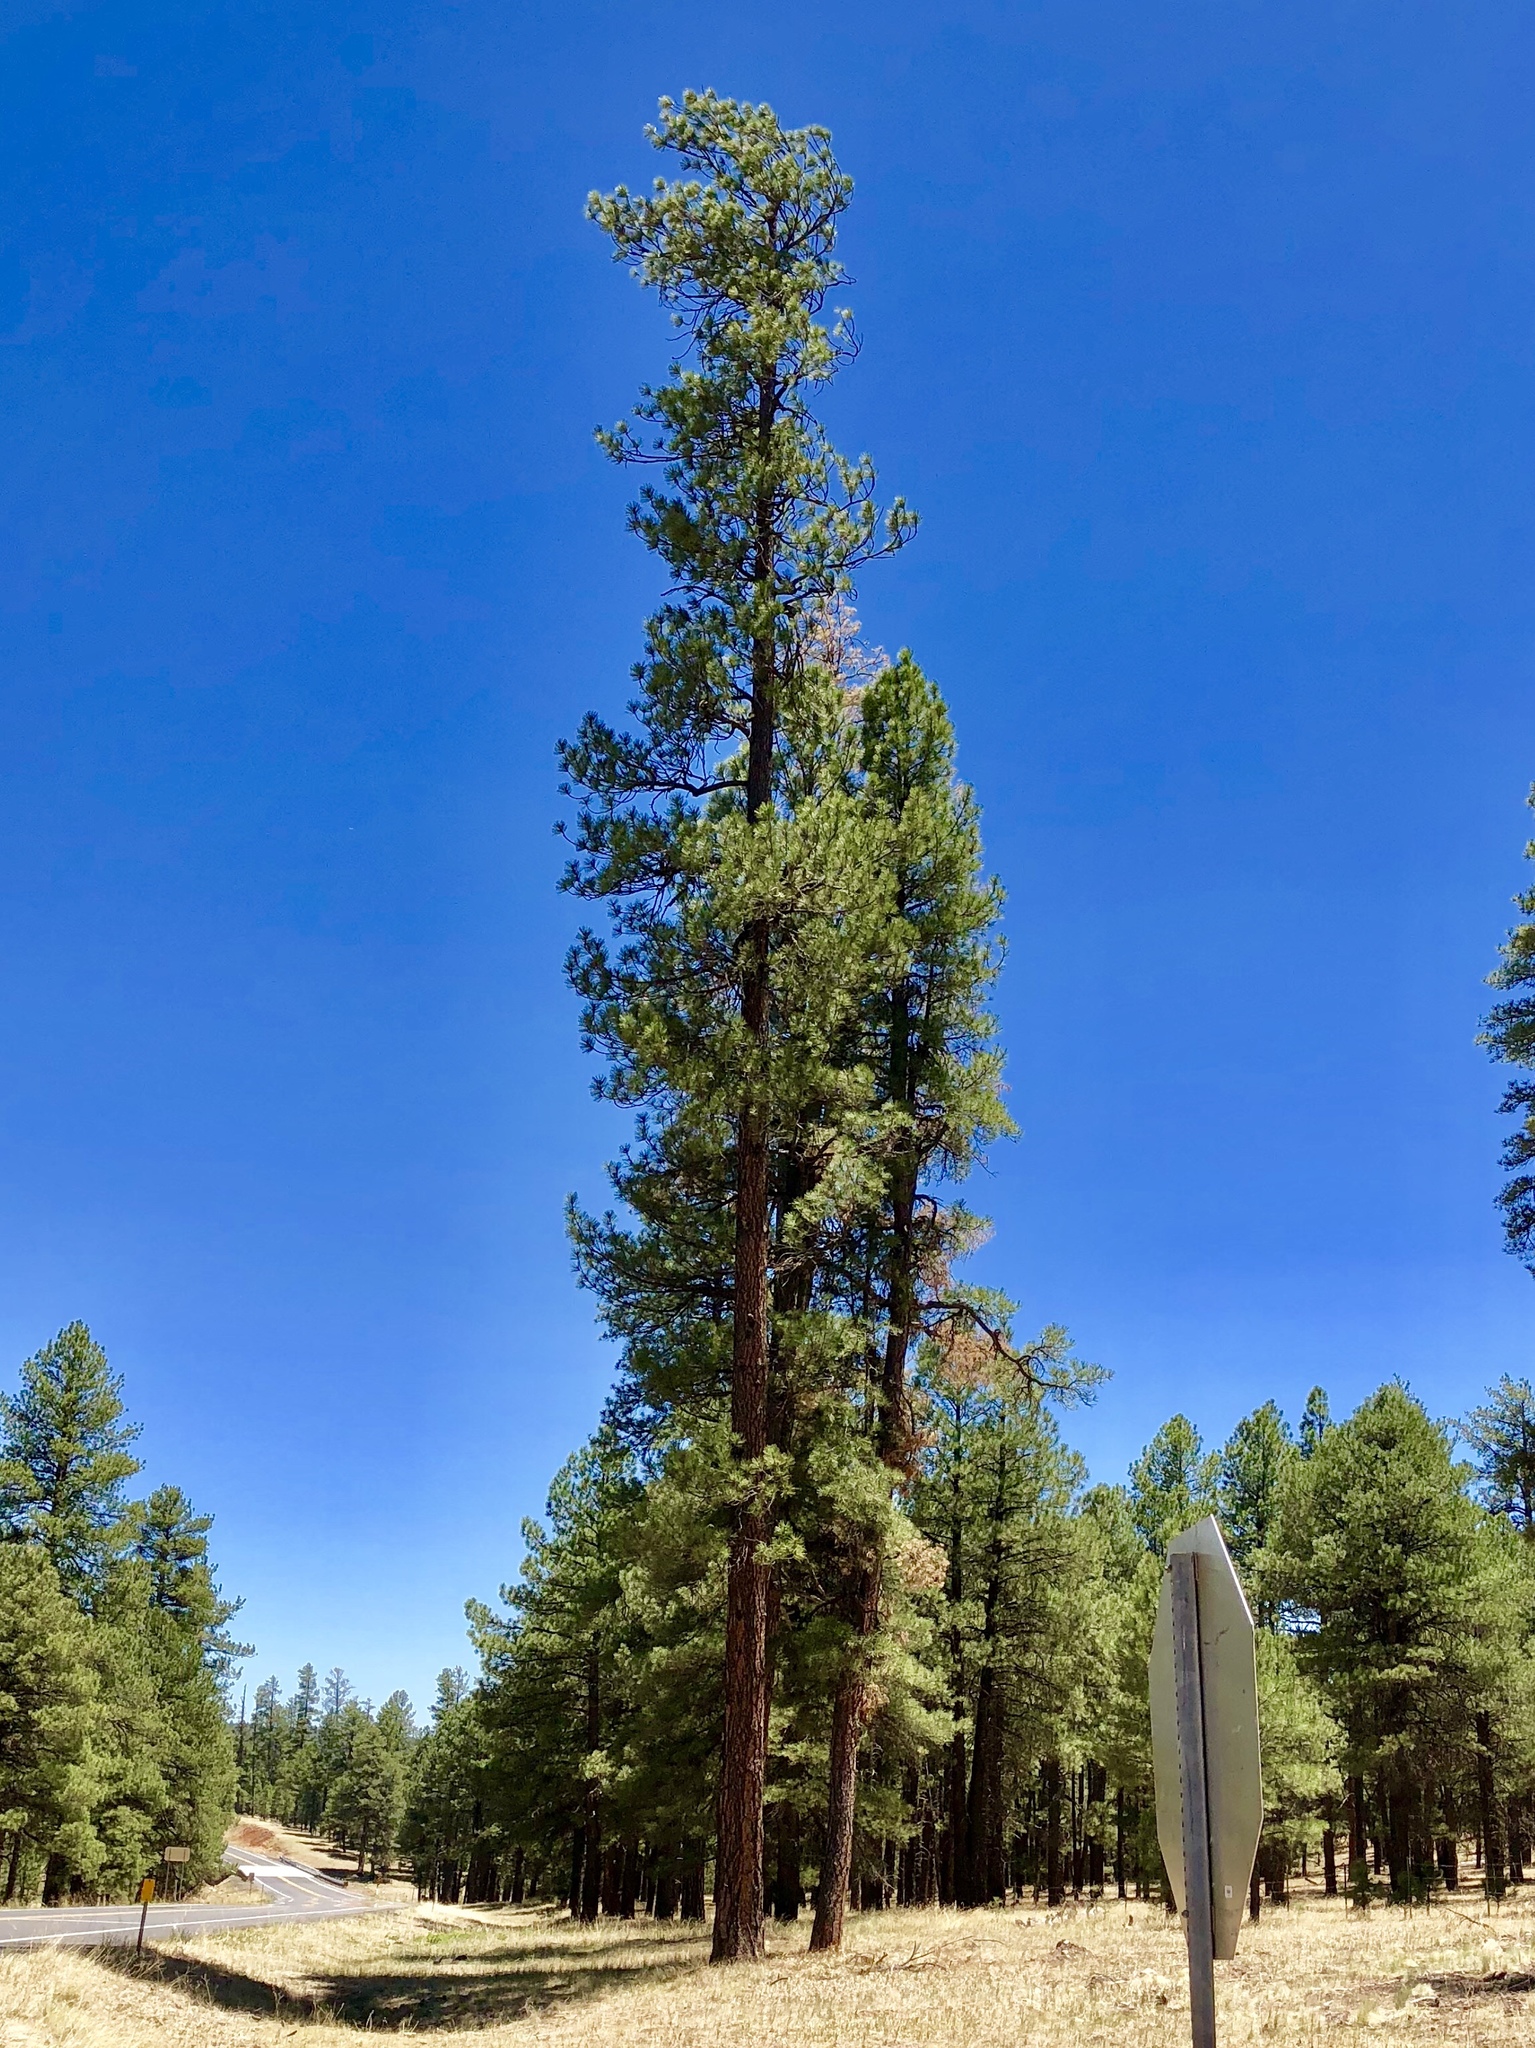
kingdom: Plantae
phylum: Tracheophyta
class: Pinopsida
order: Pinales
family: Pinaceae
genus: Pinus
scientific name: Pinus ponderosa
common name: Western yellow-pine
